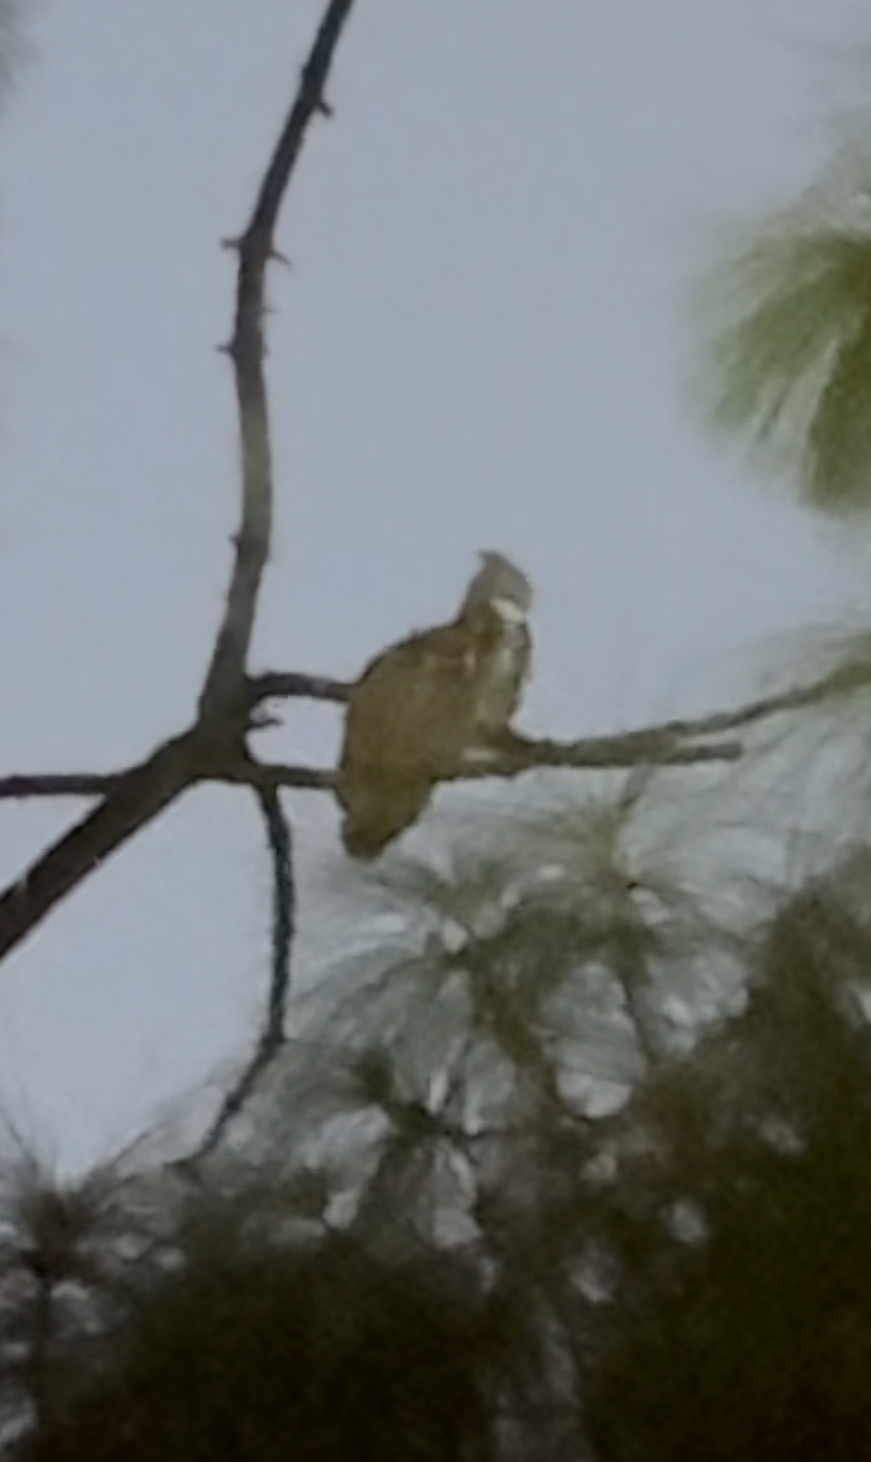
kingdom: Animalia
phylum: Chordata
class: Aves
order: Strigiformes
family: Strigidae
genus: Bubo
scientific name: Bubo virginianus
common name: Great horned owl
